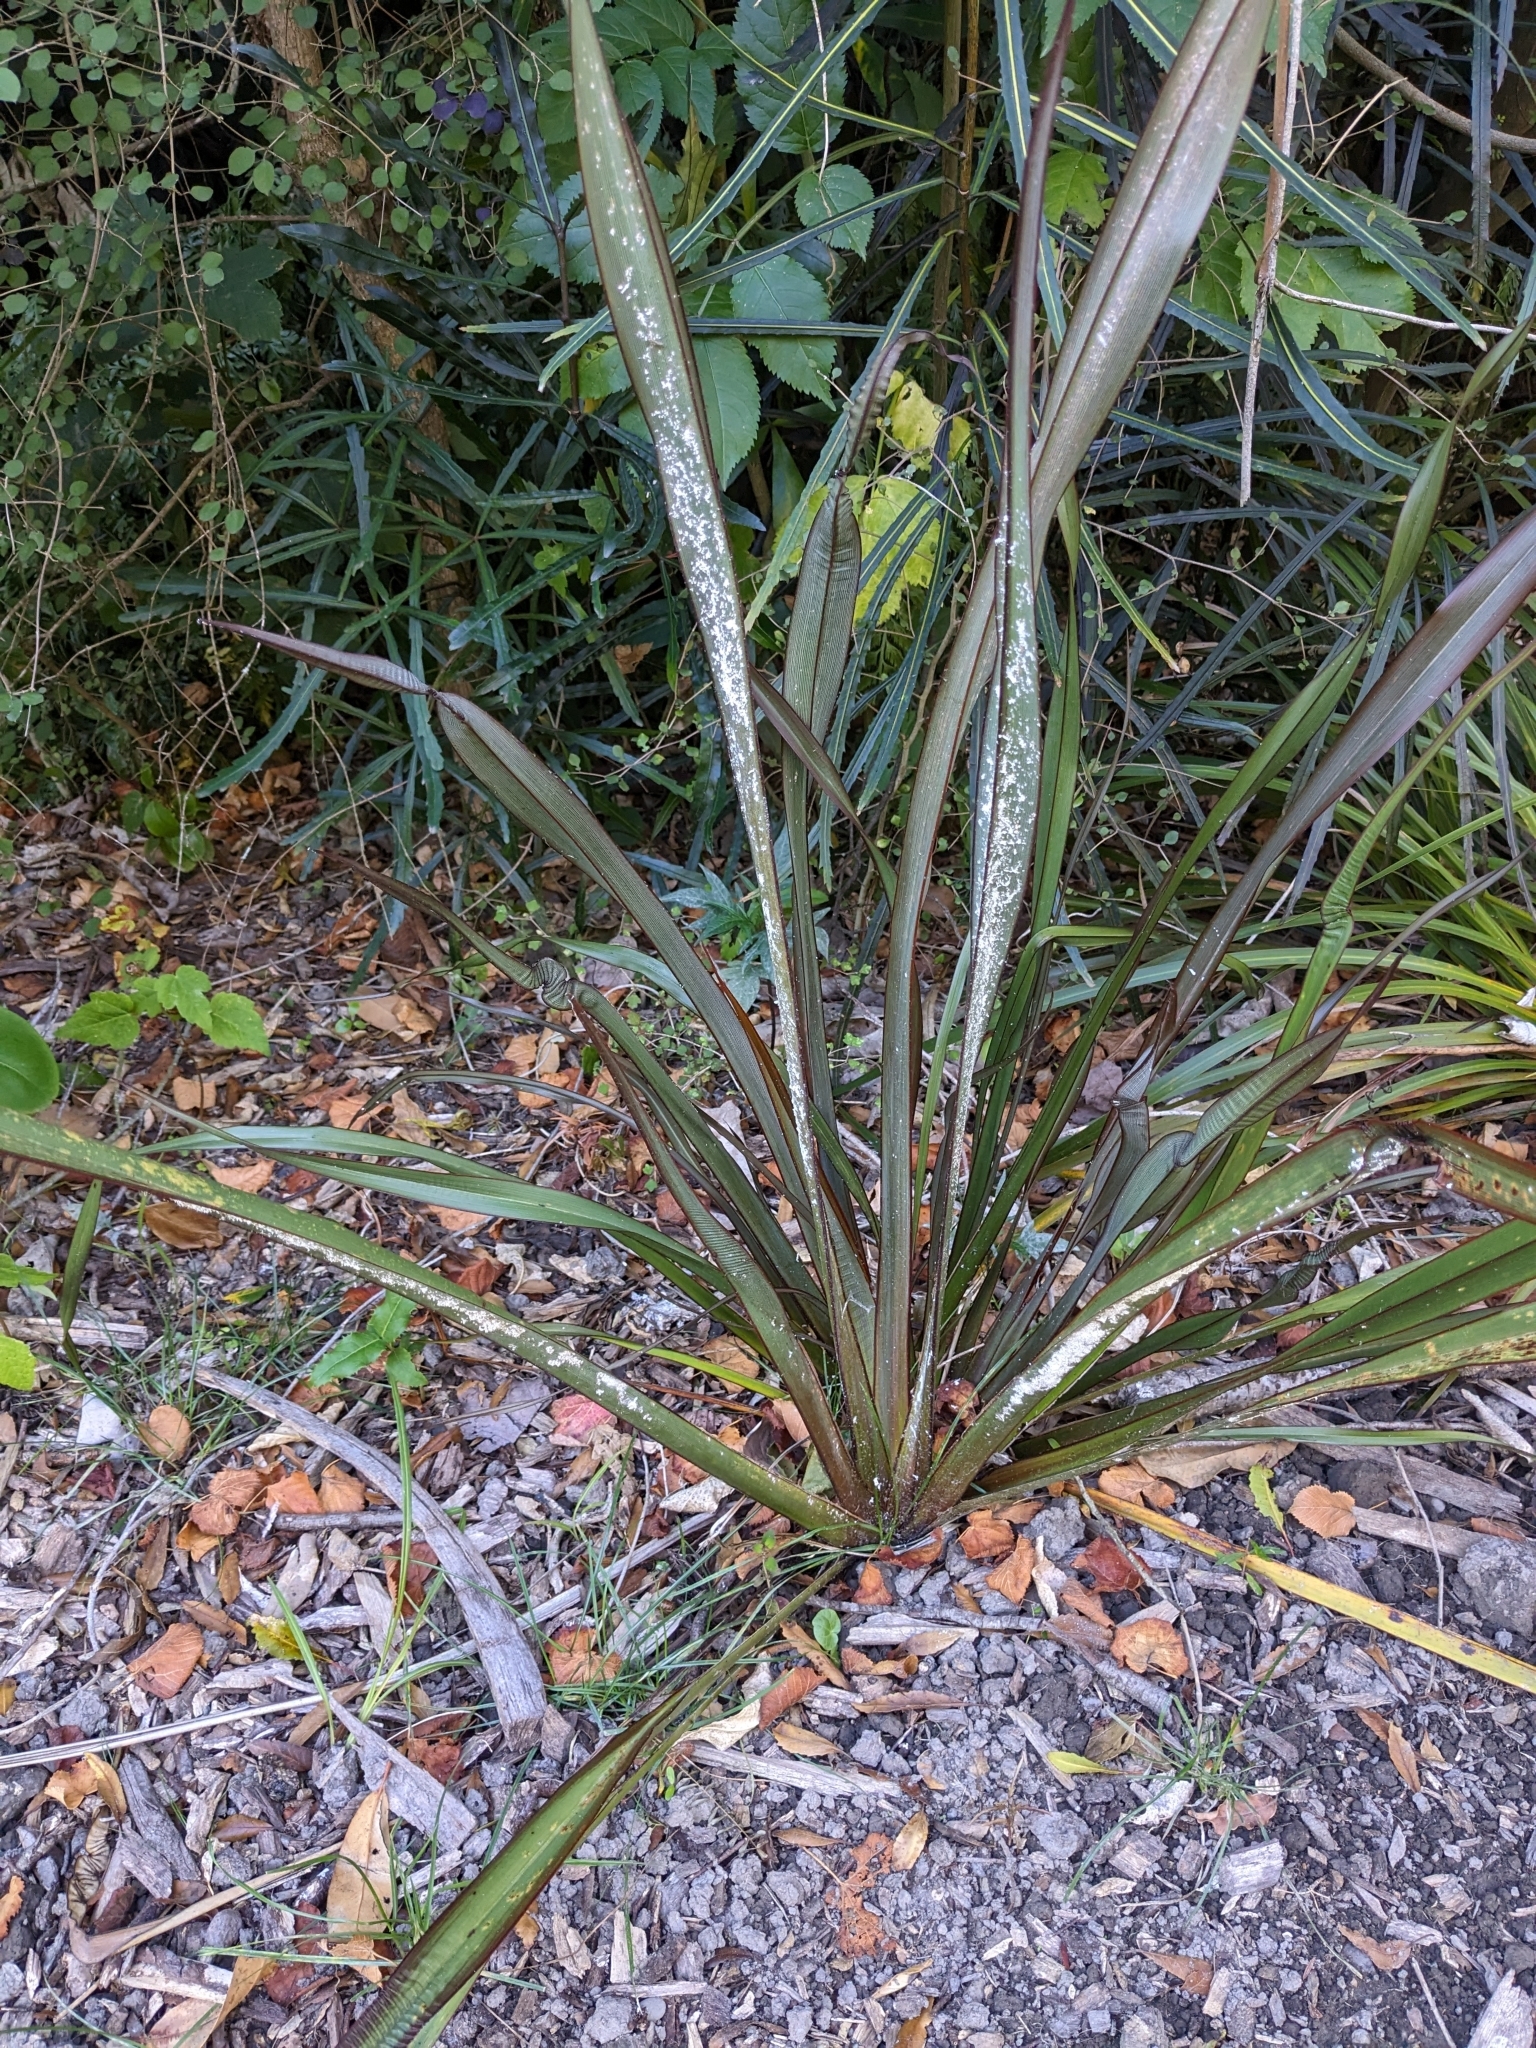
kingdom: Animalia
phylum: Arthropoda
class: Insecta
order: Hemiptera
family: Diaspididae
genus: Poliaspis
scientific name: Poliaspis floccosa
